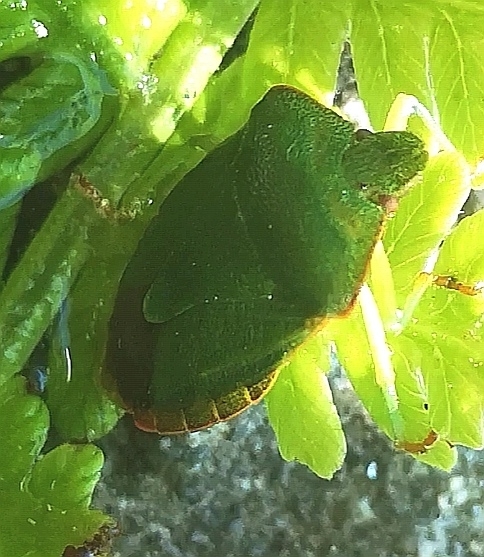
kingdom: Animalia
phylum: Arthropoda
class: Insecta
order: Hemiptera
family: Pentatomidae
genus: Palomena
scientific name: Palomena prasina
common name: Green shieldbug
